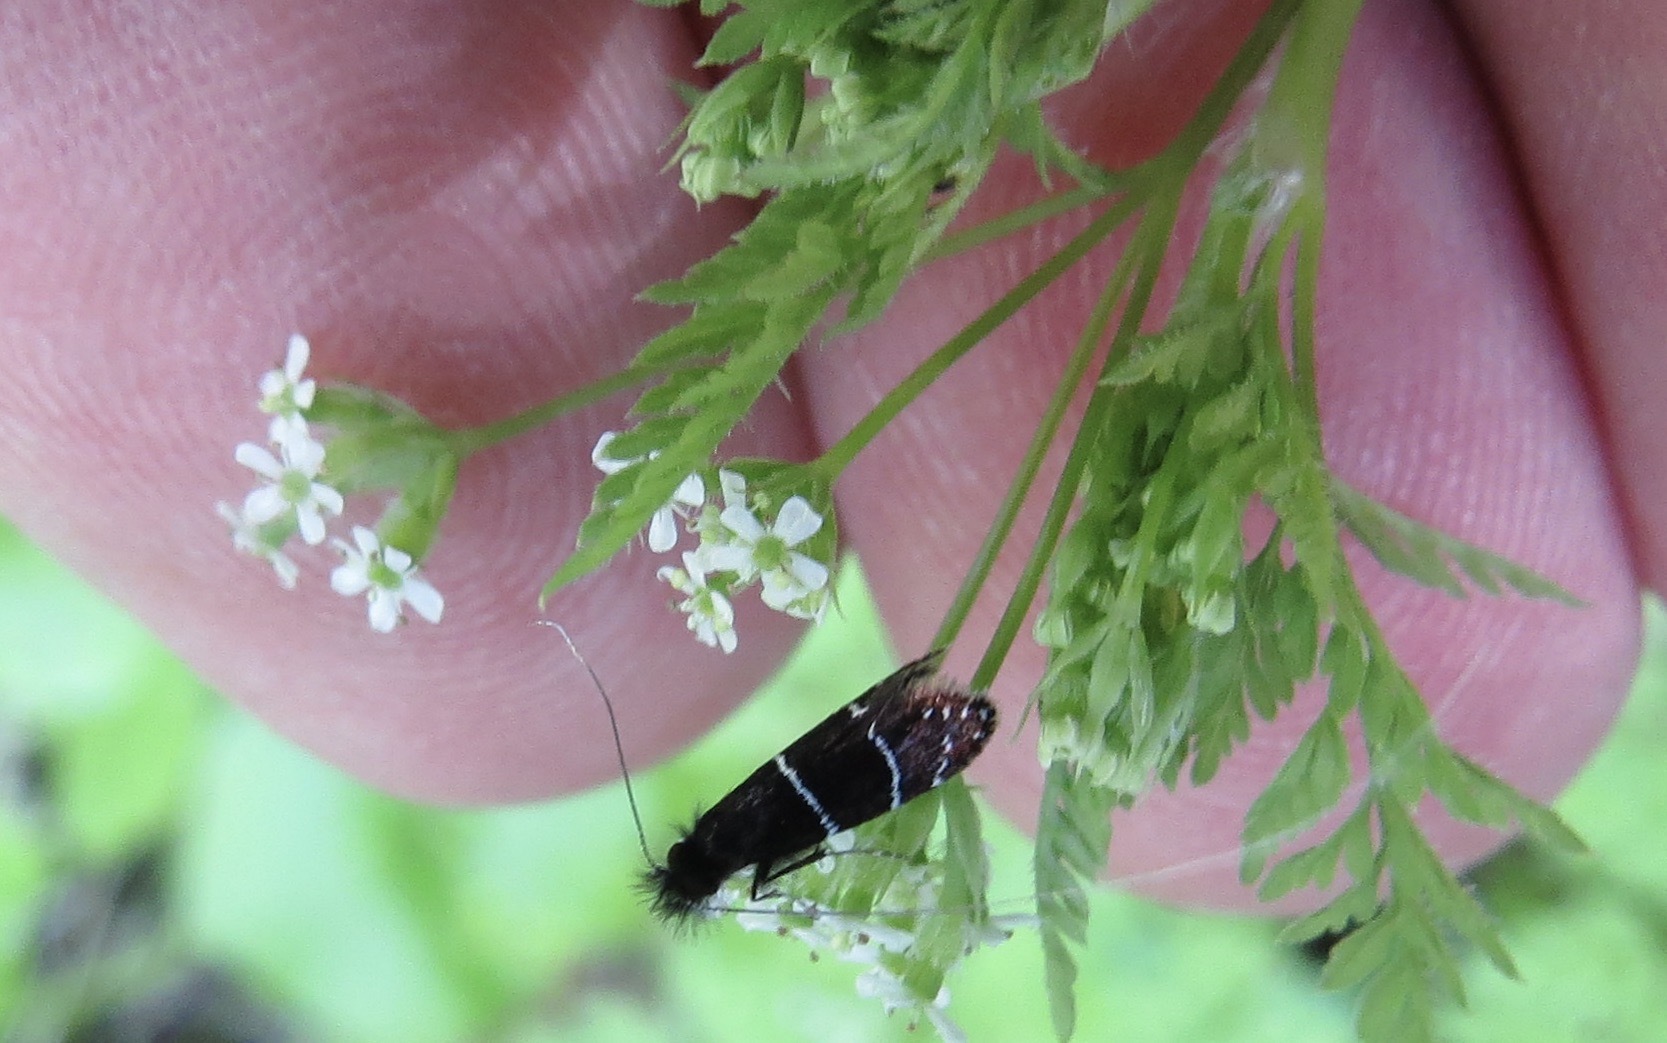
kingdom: Animalia
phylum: Arthropoda
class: Insecta
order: Lepidoptera
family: Adelidae
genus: Adela
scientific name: Adela septentrionella
